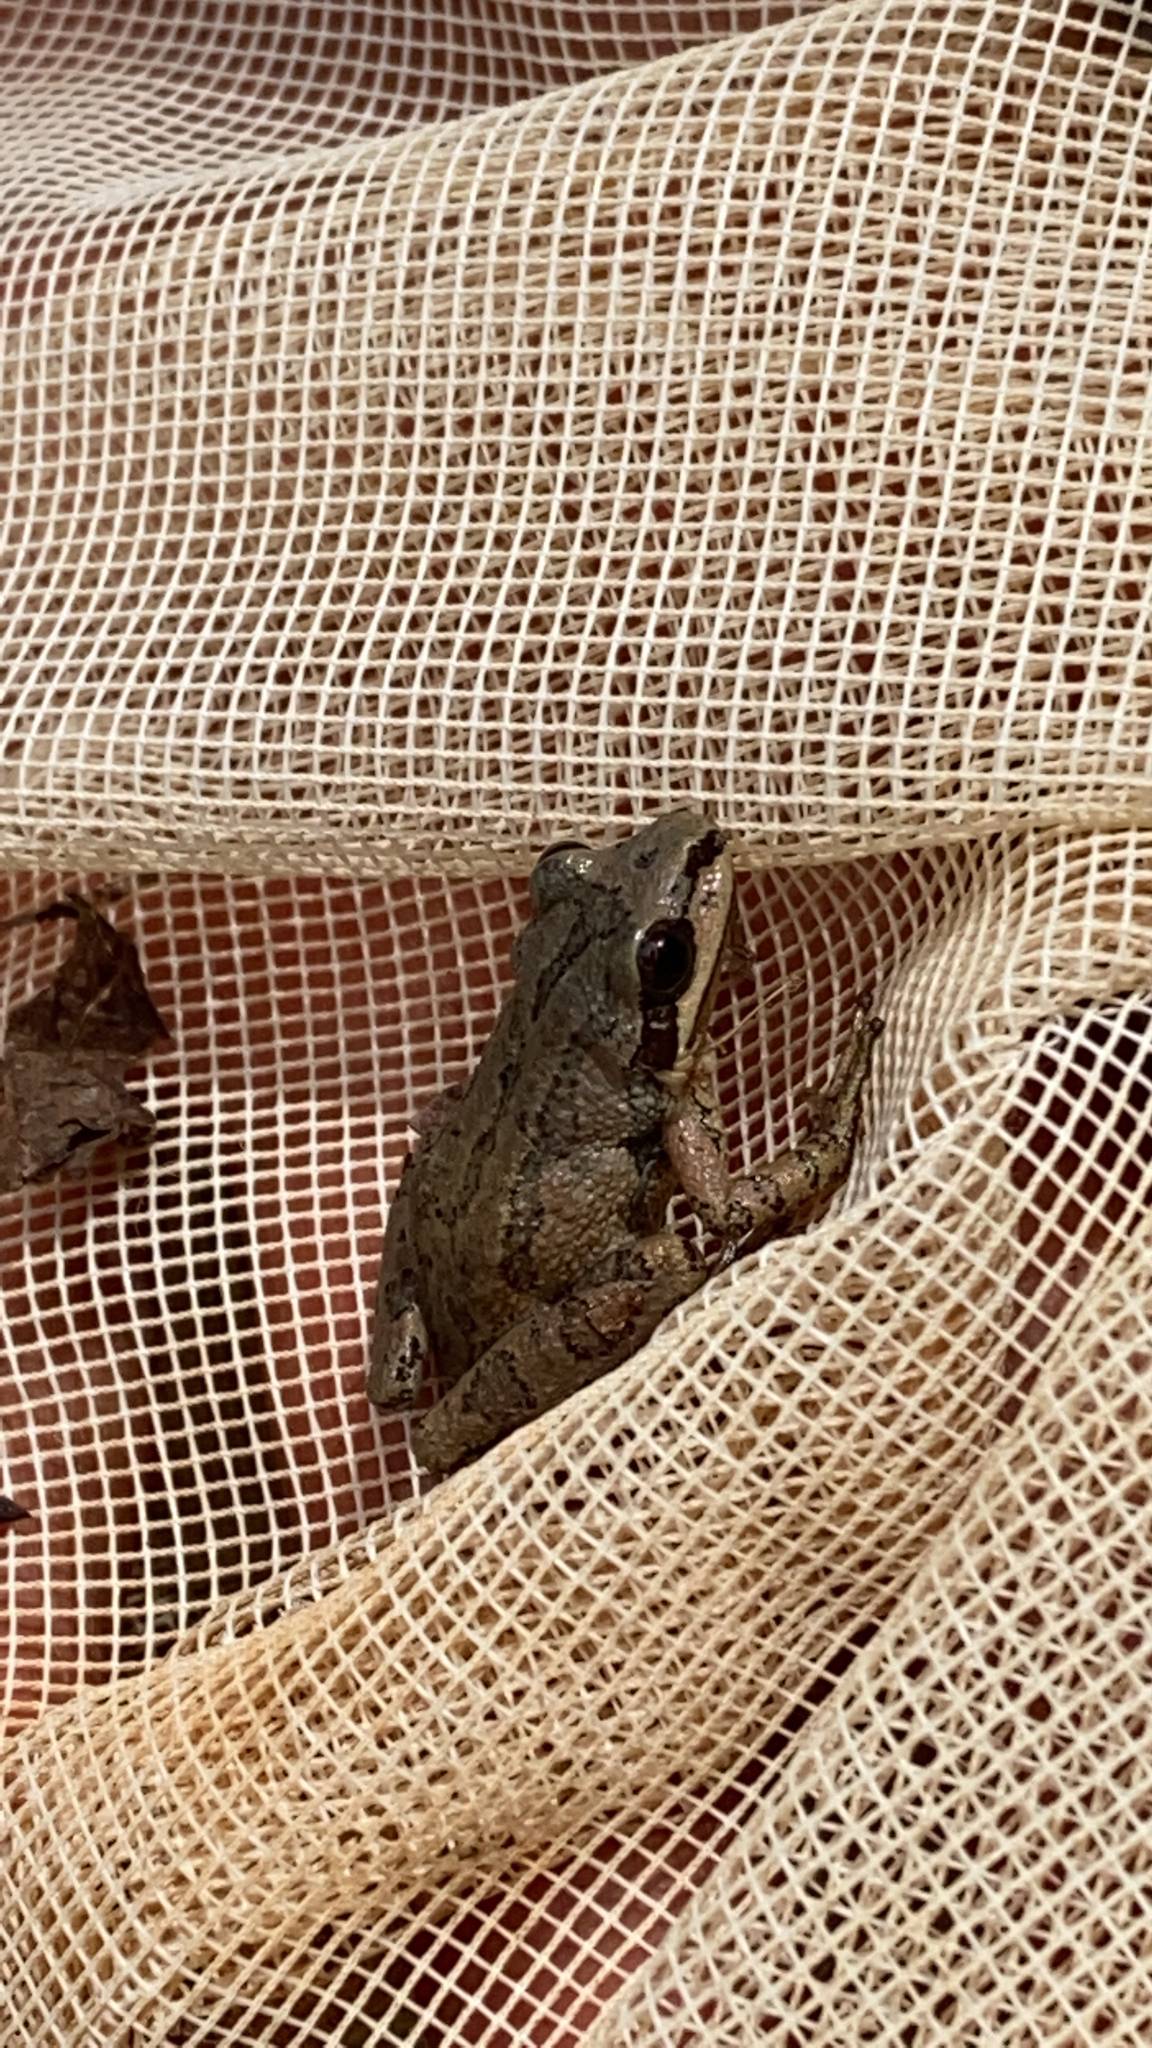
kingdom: Animalia
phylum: Chordata
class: Amphibia
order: Anura
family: Hylidae
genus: Pseudacris
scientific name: Pseudacris feriarum
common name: Upland chorus frog
